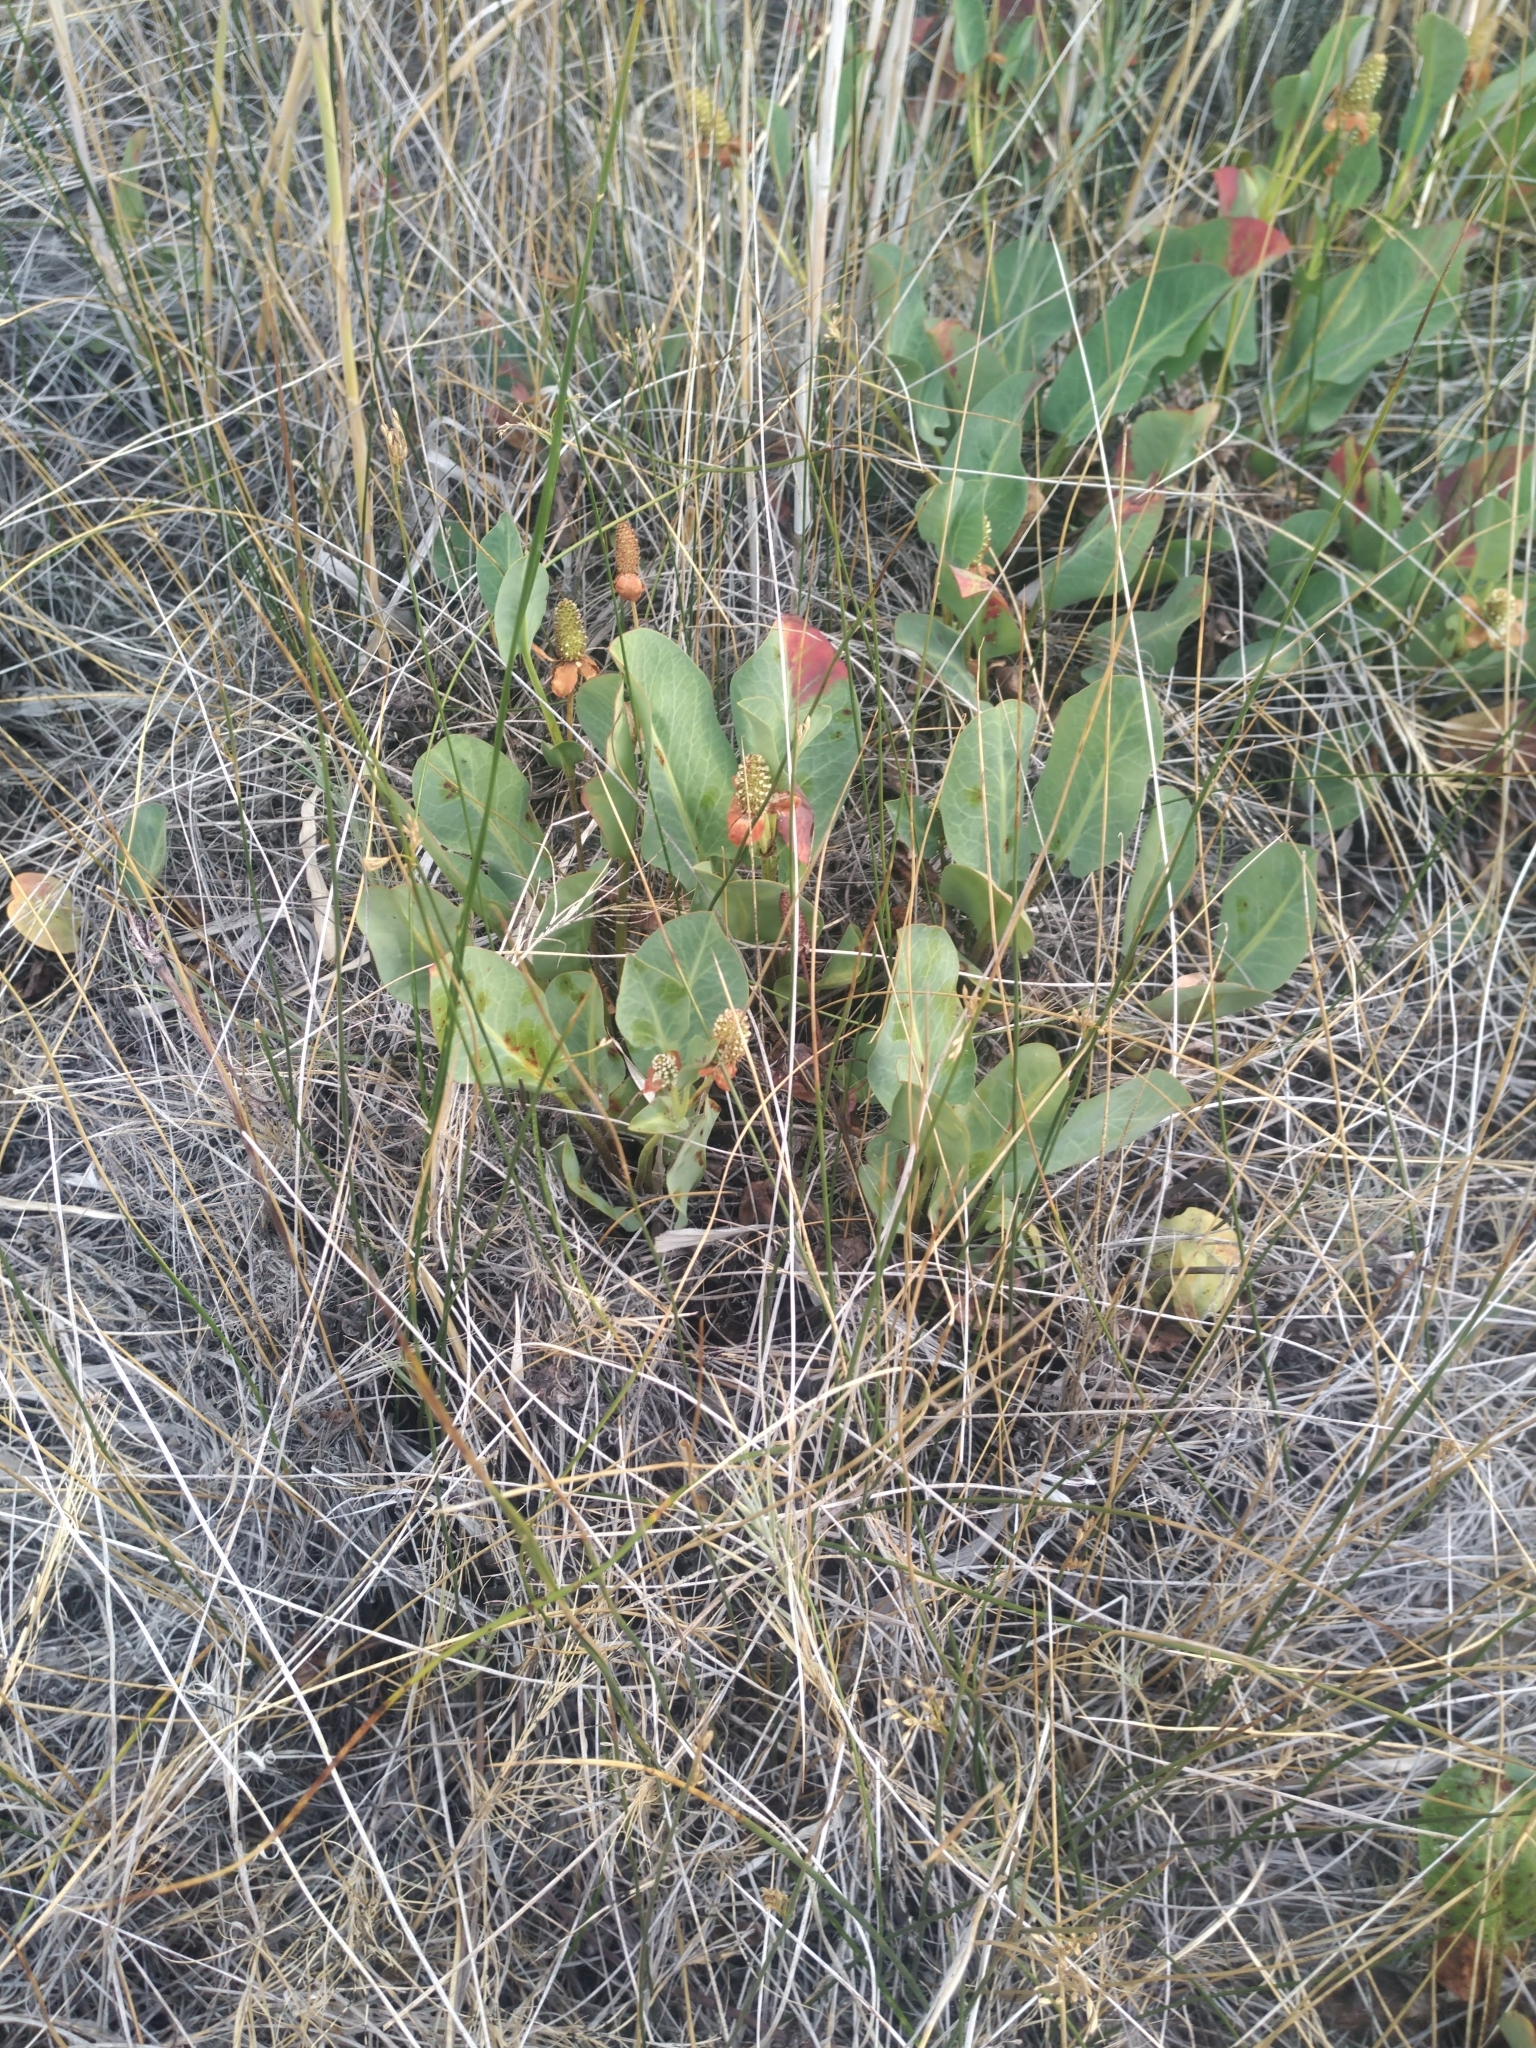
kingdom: Plantae
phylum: Tracheophyta
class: Magnoliopsida
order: Piperales
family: Saururaceae
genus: Anemopsis
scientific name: Anemopsis californica
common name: Apache-beads
